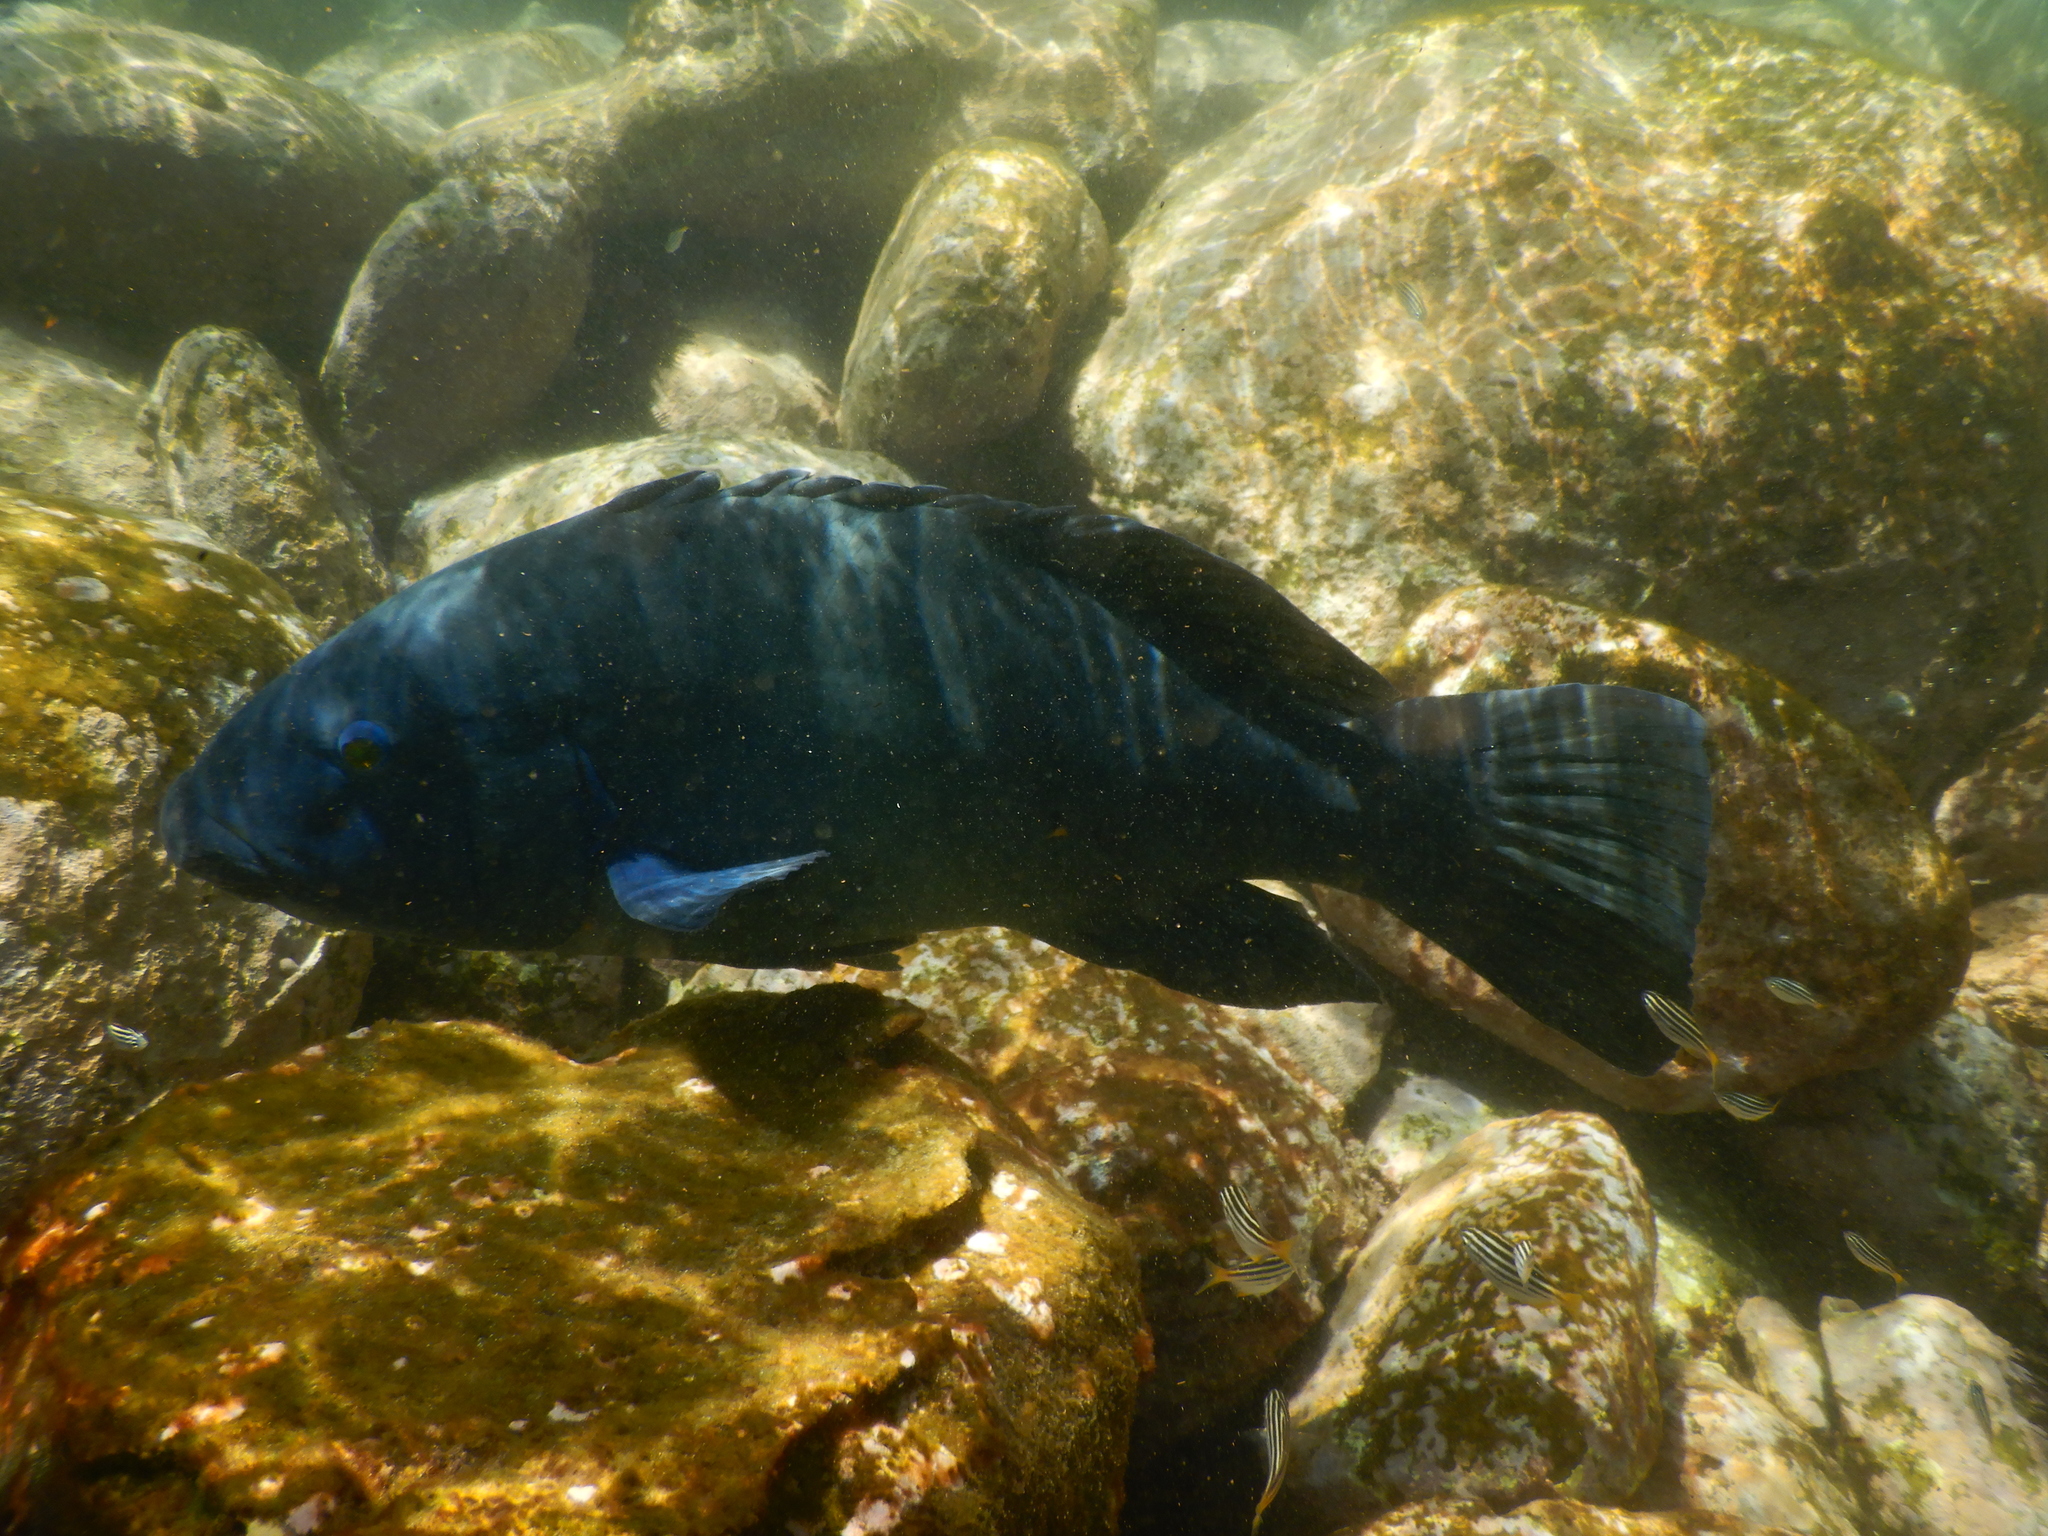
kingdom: Animalia
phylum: Chordata
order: Perciformes
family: Labridae
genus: Achoerodus
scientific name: Achoerodus viridis
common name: Brown groper
